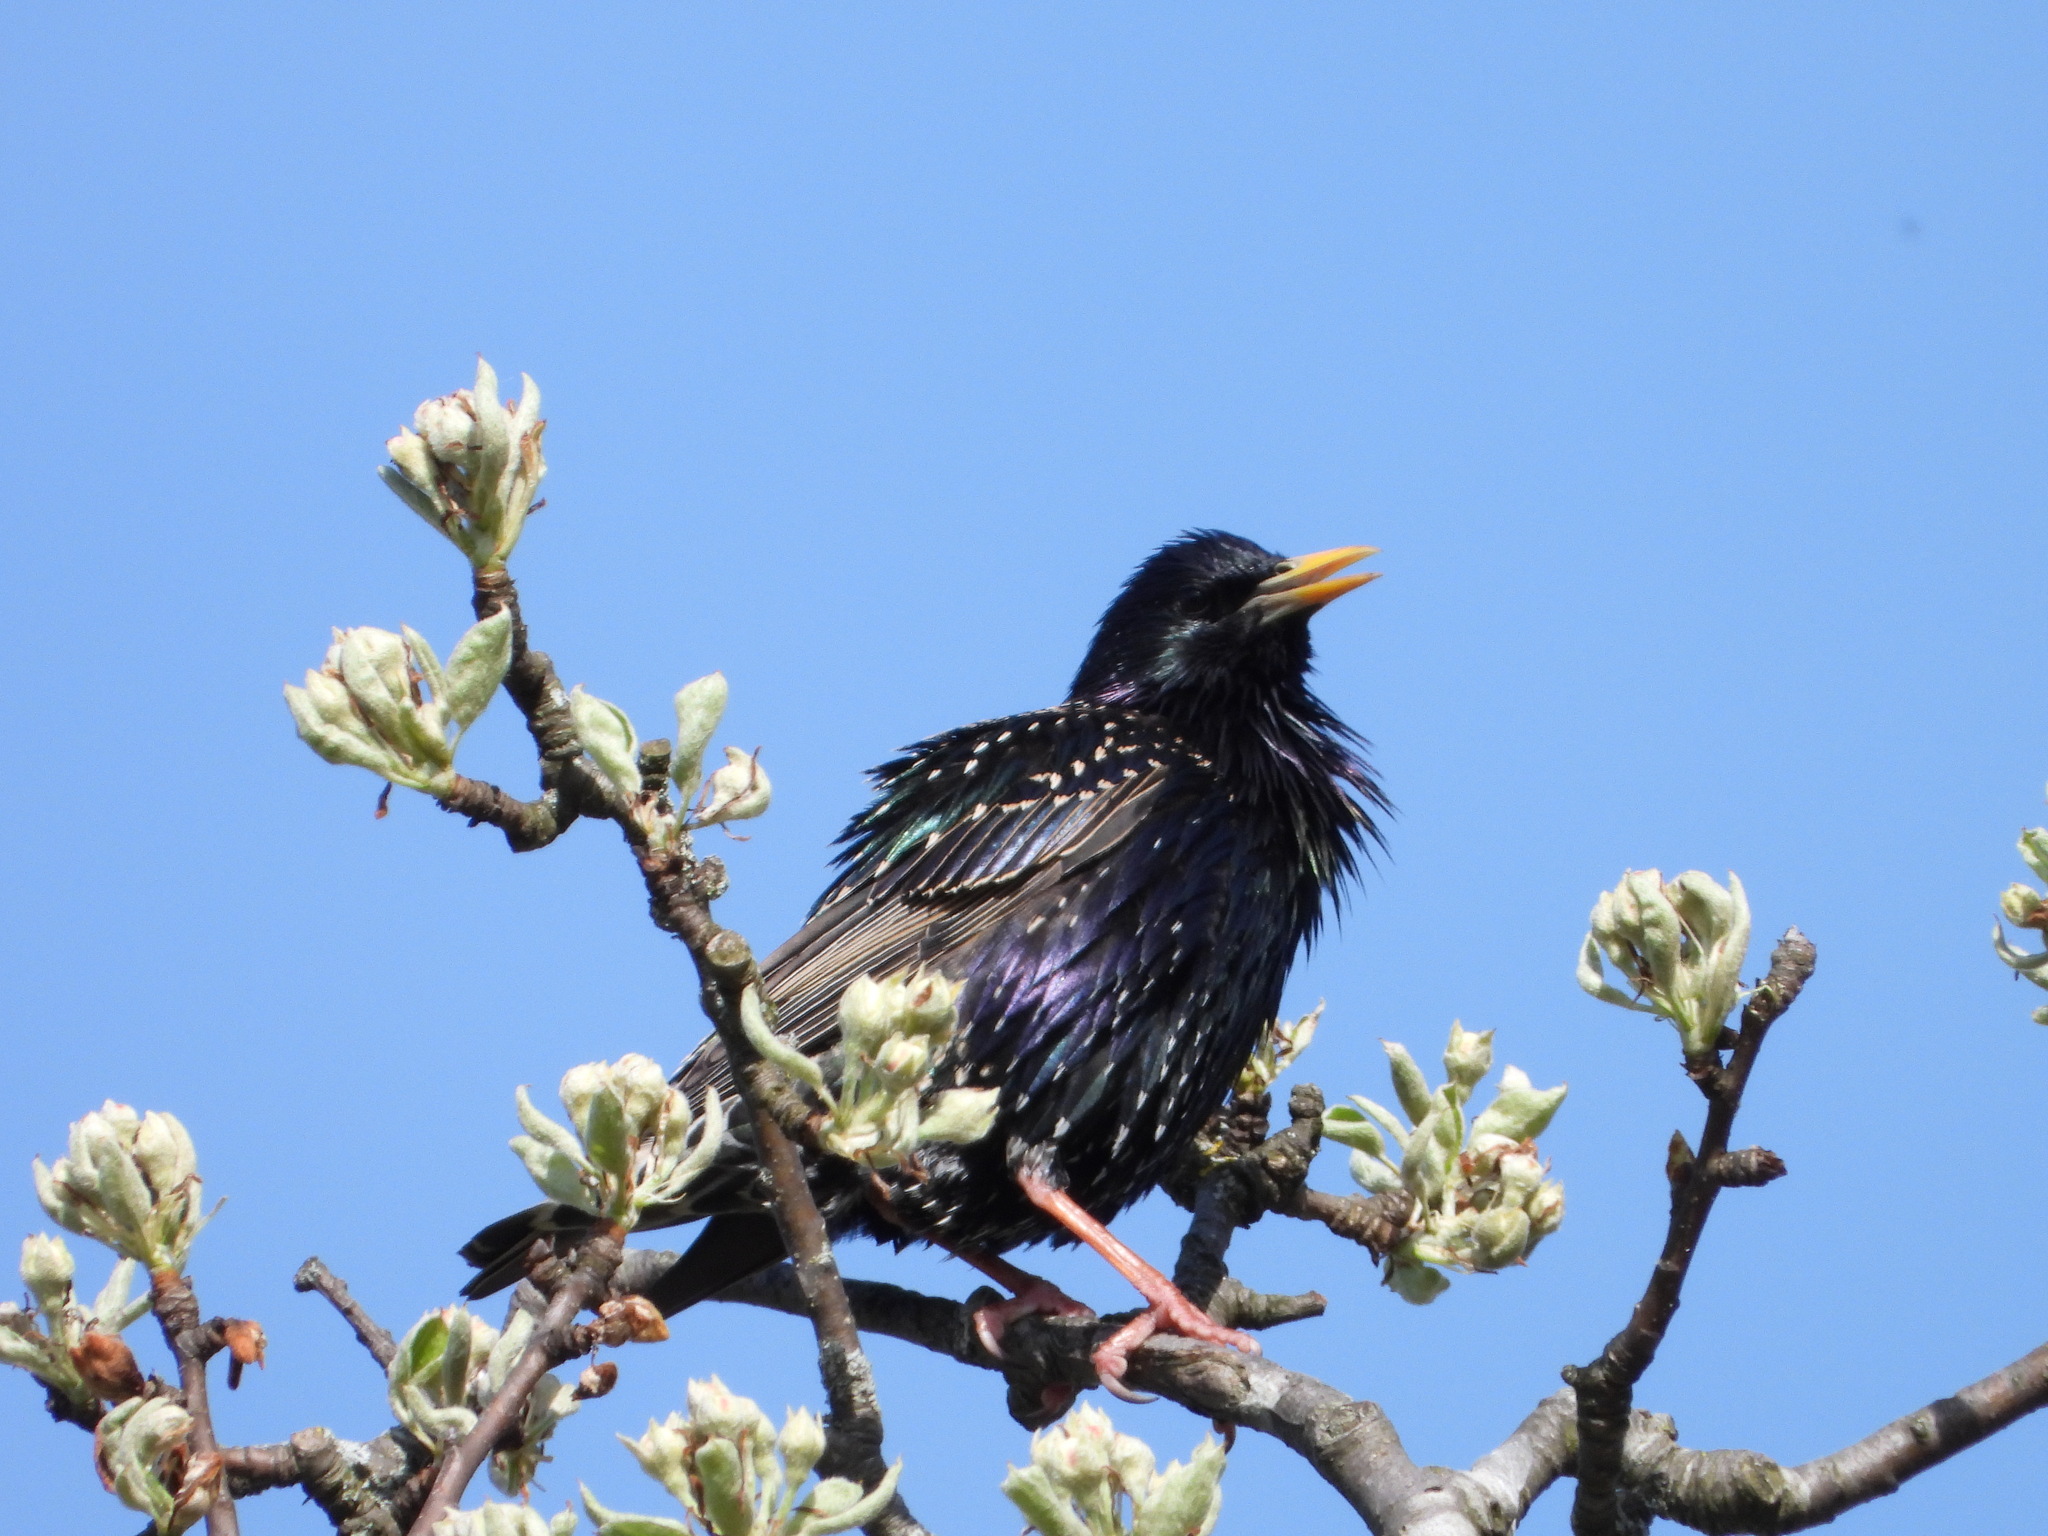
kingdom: Animalia
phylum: Chordata
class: Aves
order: Passeriformes
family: Sturnidae
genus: Sturnus
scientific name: Sturnus vulgaris
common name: Common starling
